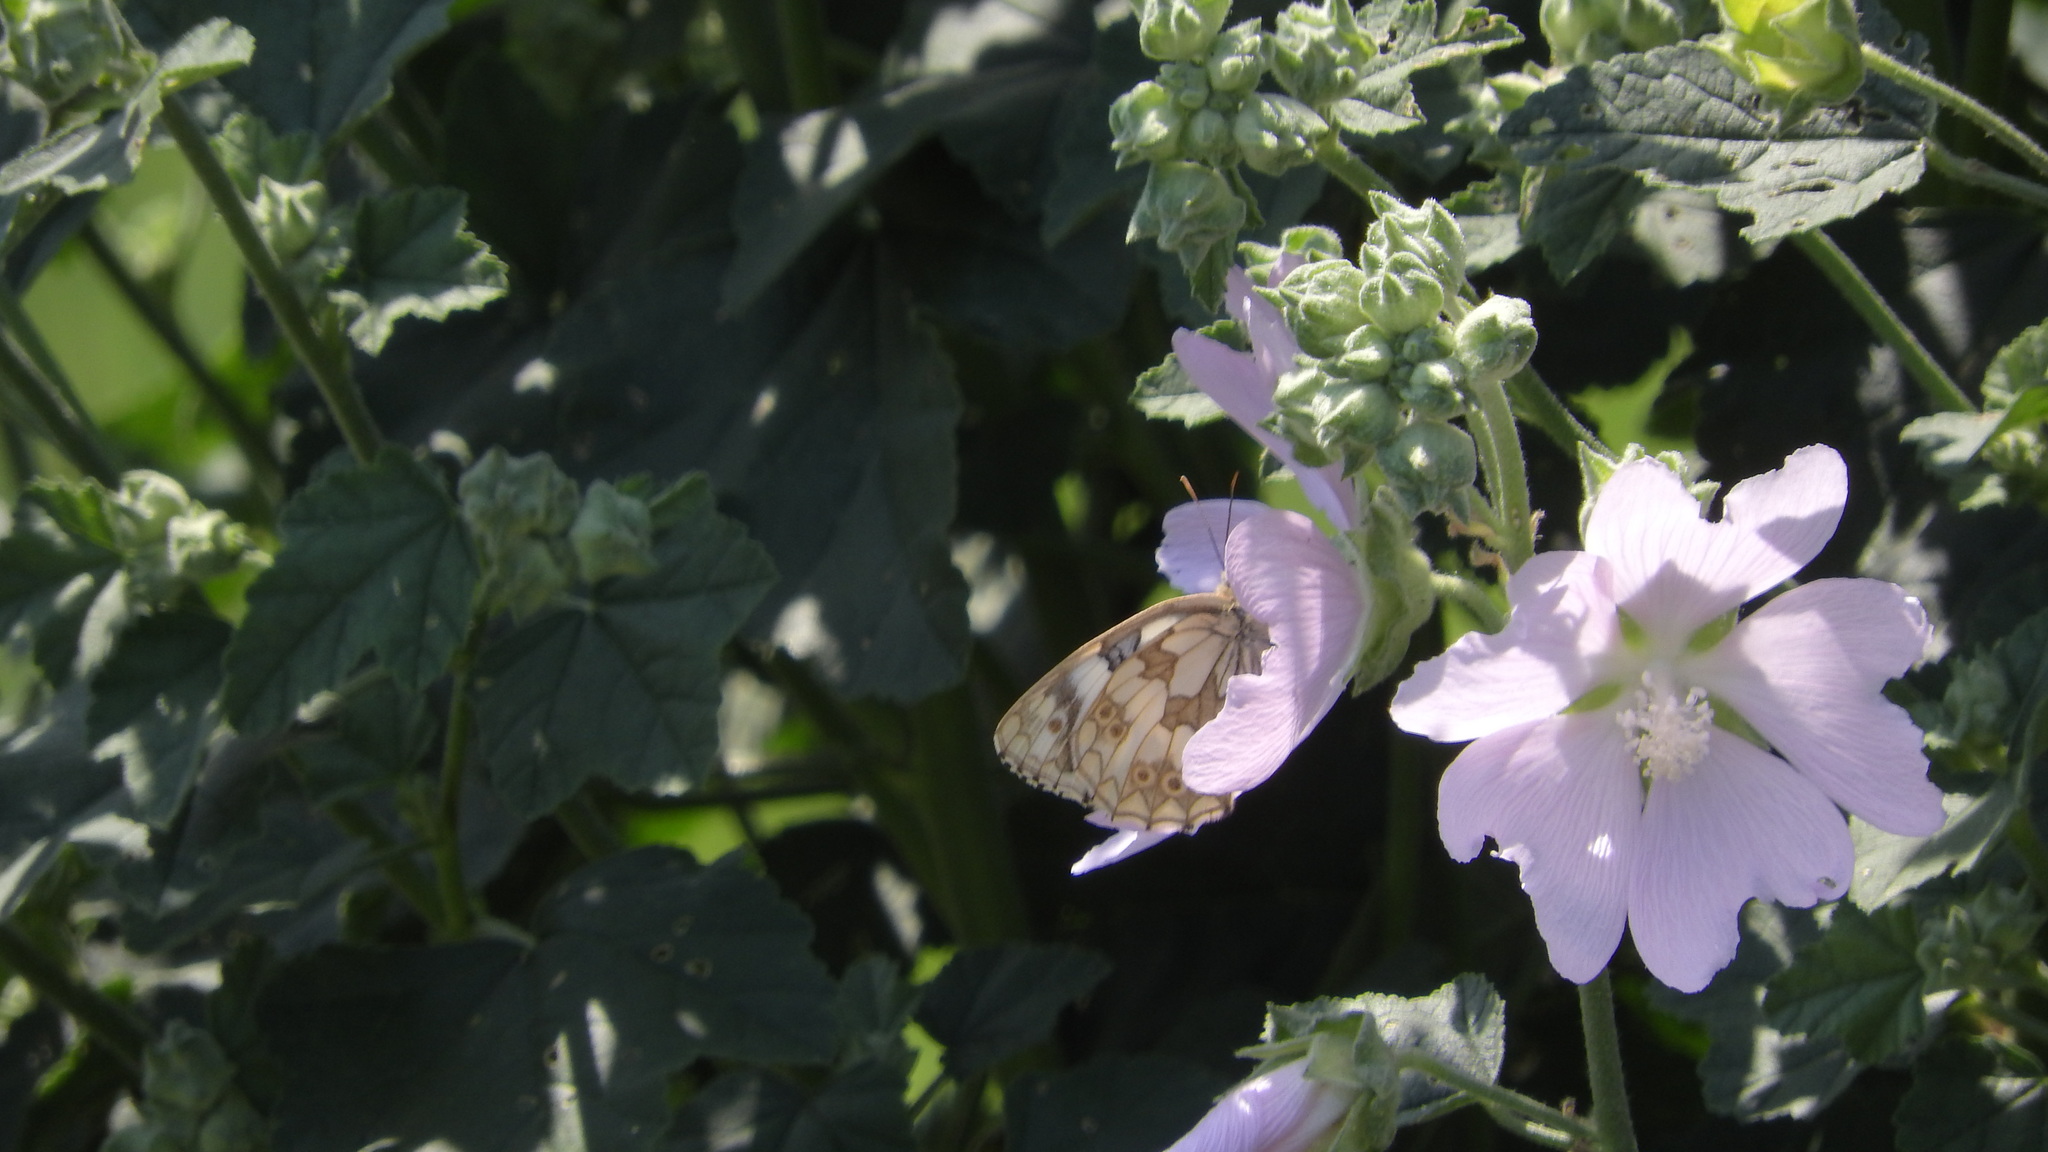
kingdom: Animalia
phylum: Arthropoda
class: Insecta
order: Lepidoptera
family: Nymphalidae
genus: Melanargia
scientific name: Melanargia galathea
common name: Marbled white
